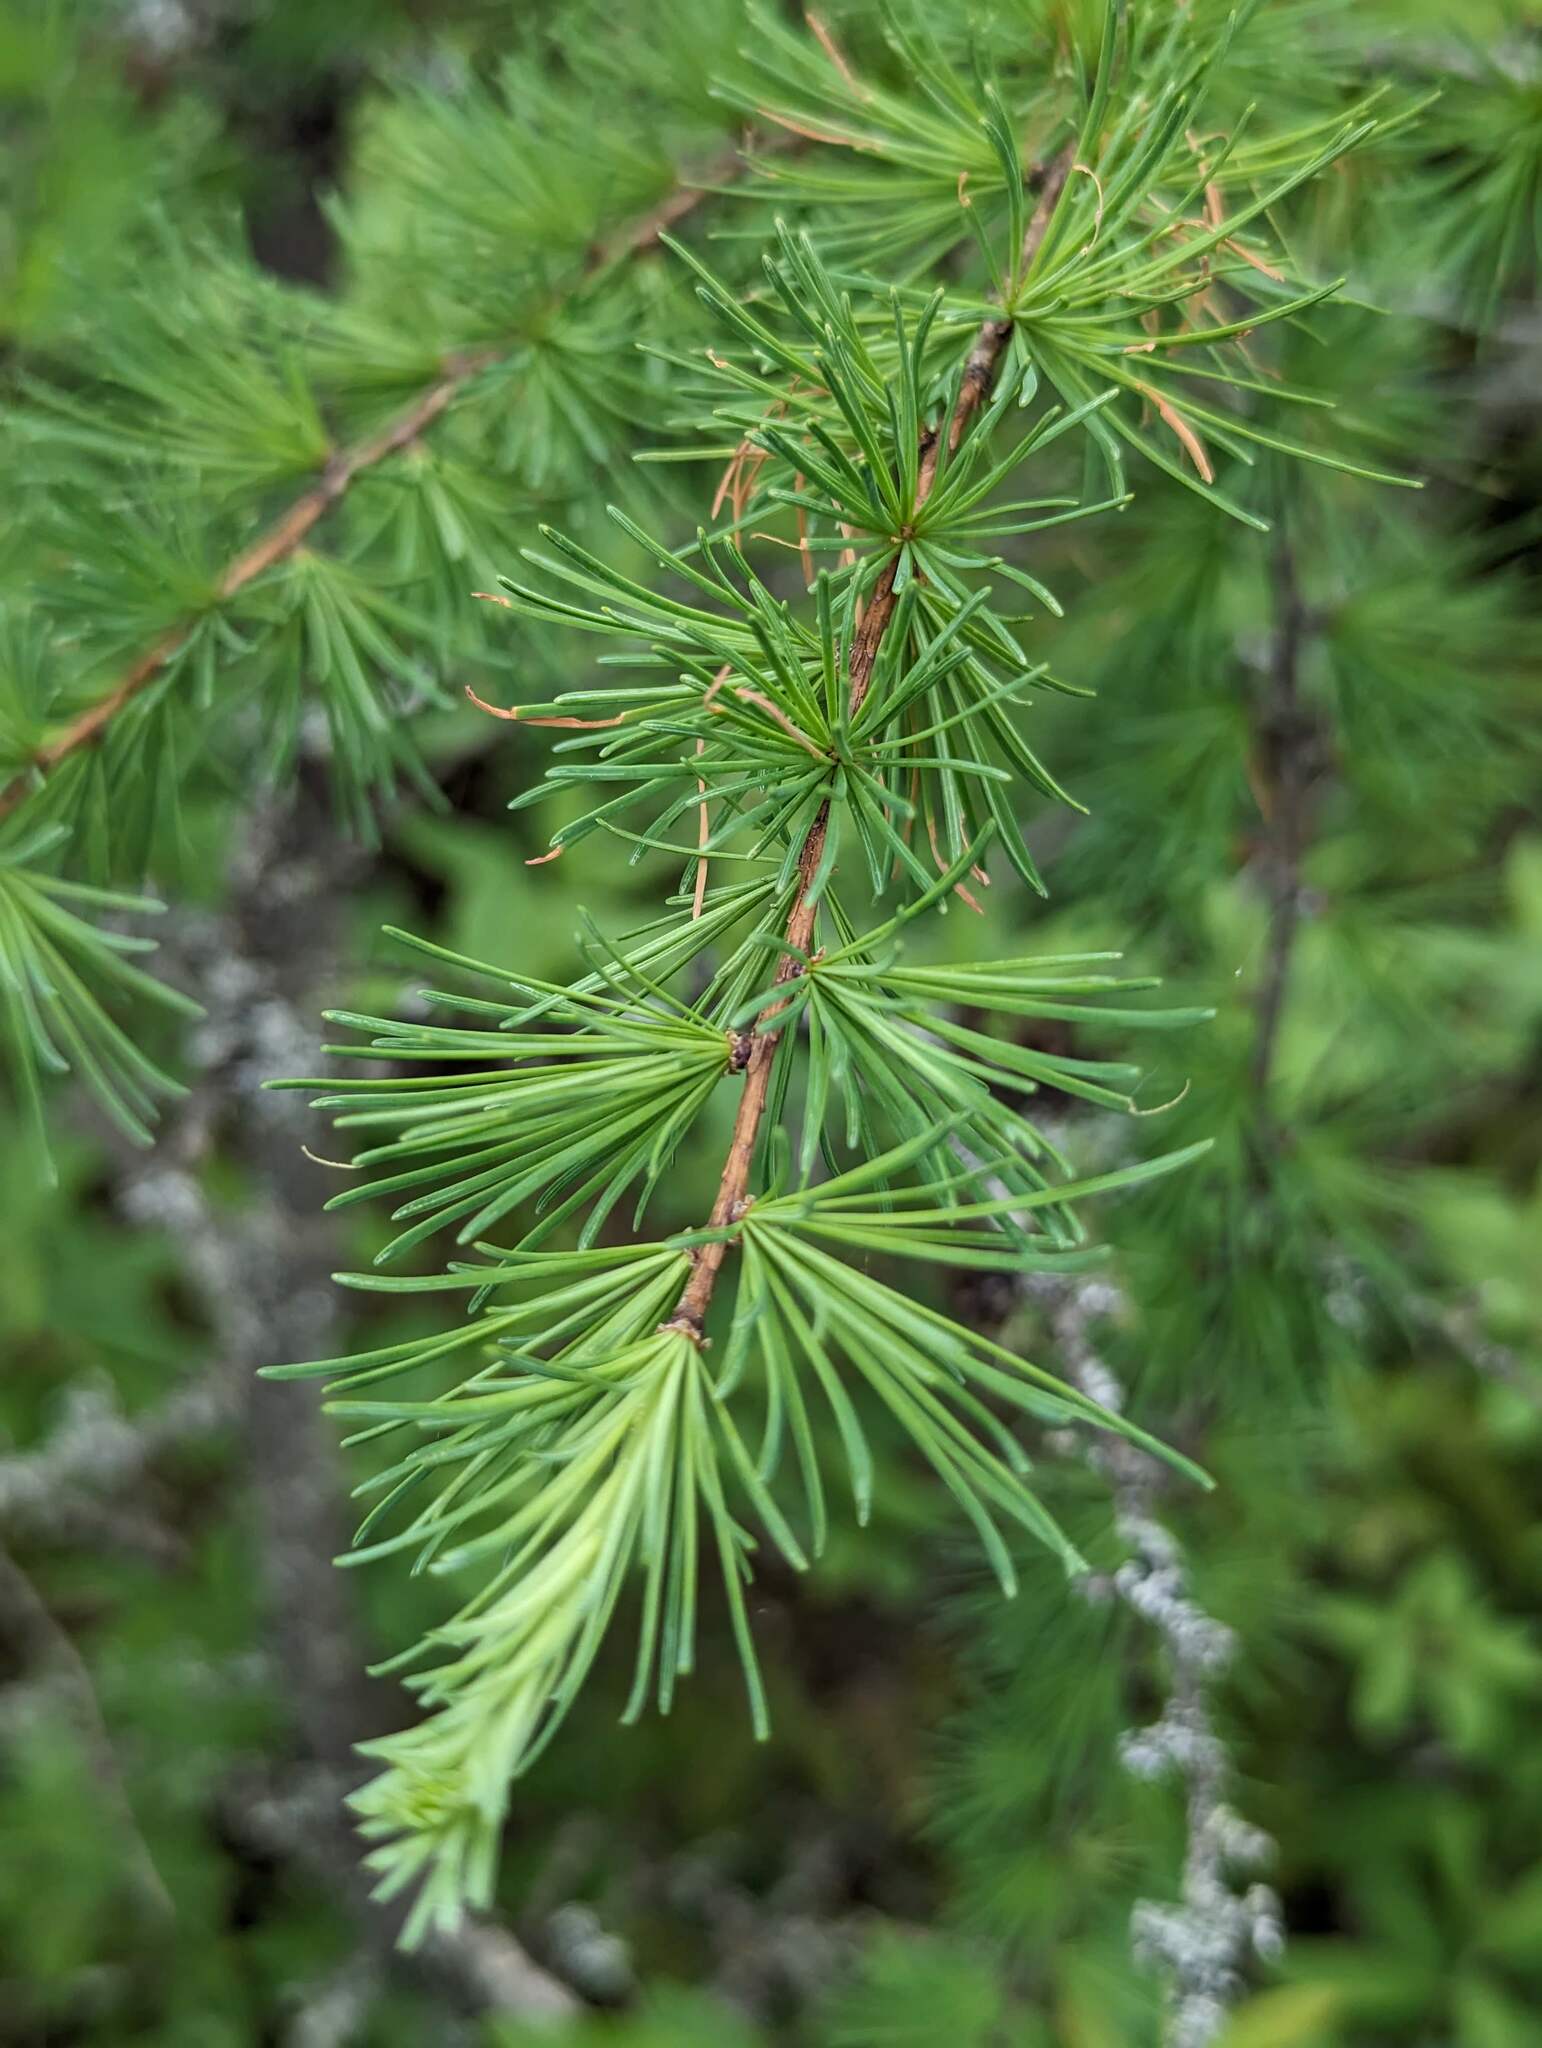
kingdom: Plantae
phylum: Tracheophyta
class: Pinopsida
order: Pinales
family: Pinaceae
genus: Larix
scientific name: Larix laricina
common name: American larch
